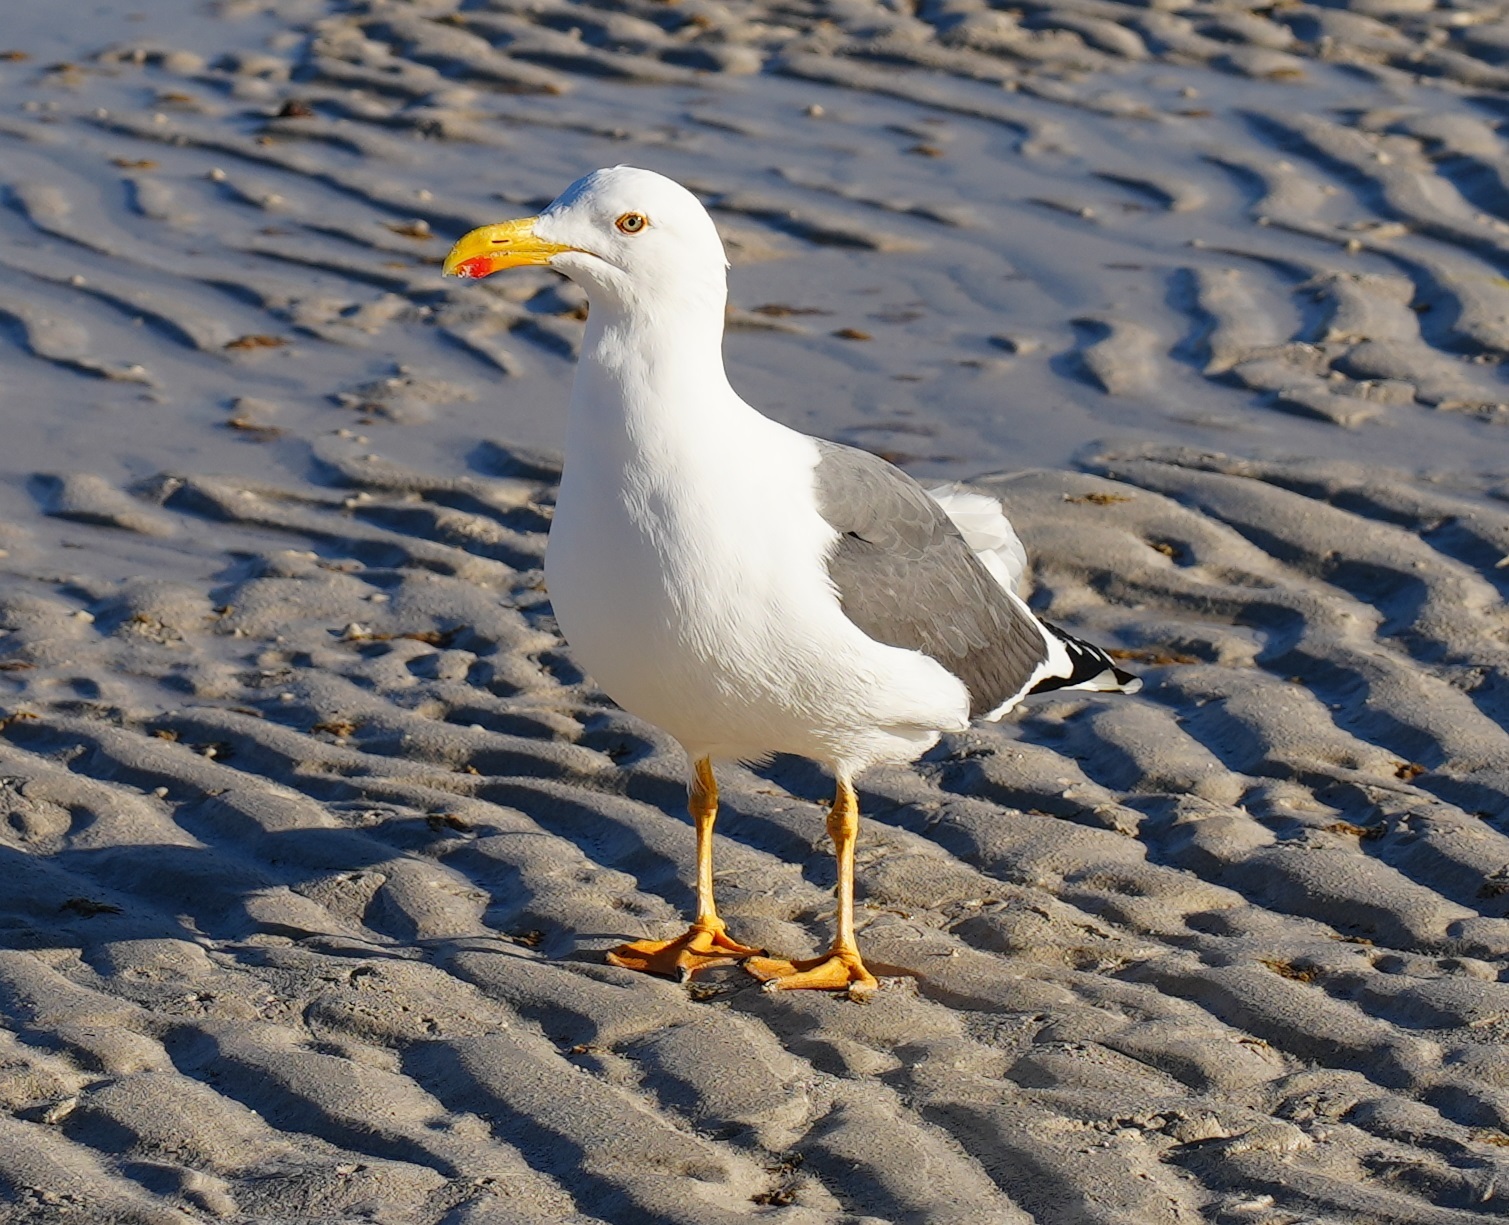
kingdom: Animalia
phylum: Chordata
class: Aves
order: Charadriiformes
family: Laridae
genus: Larus
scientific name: Larus livens
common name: Yellow-footed gull
